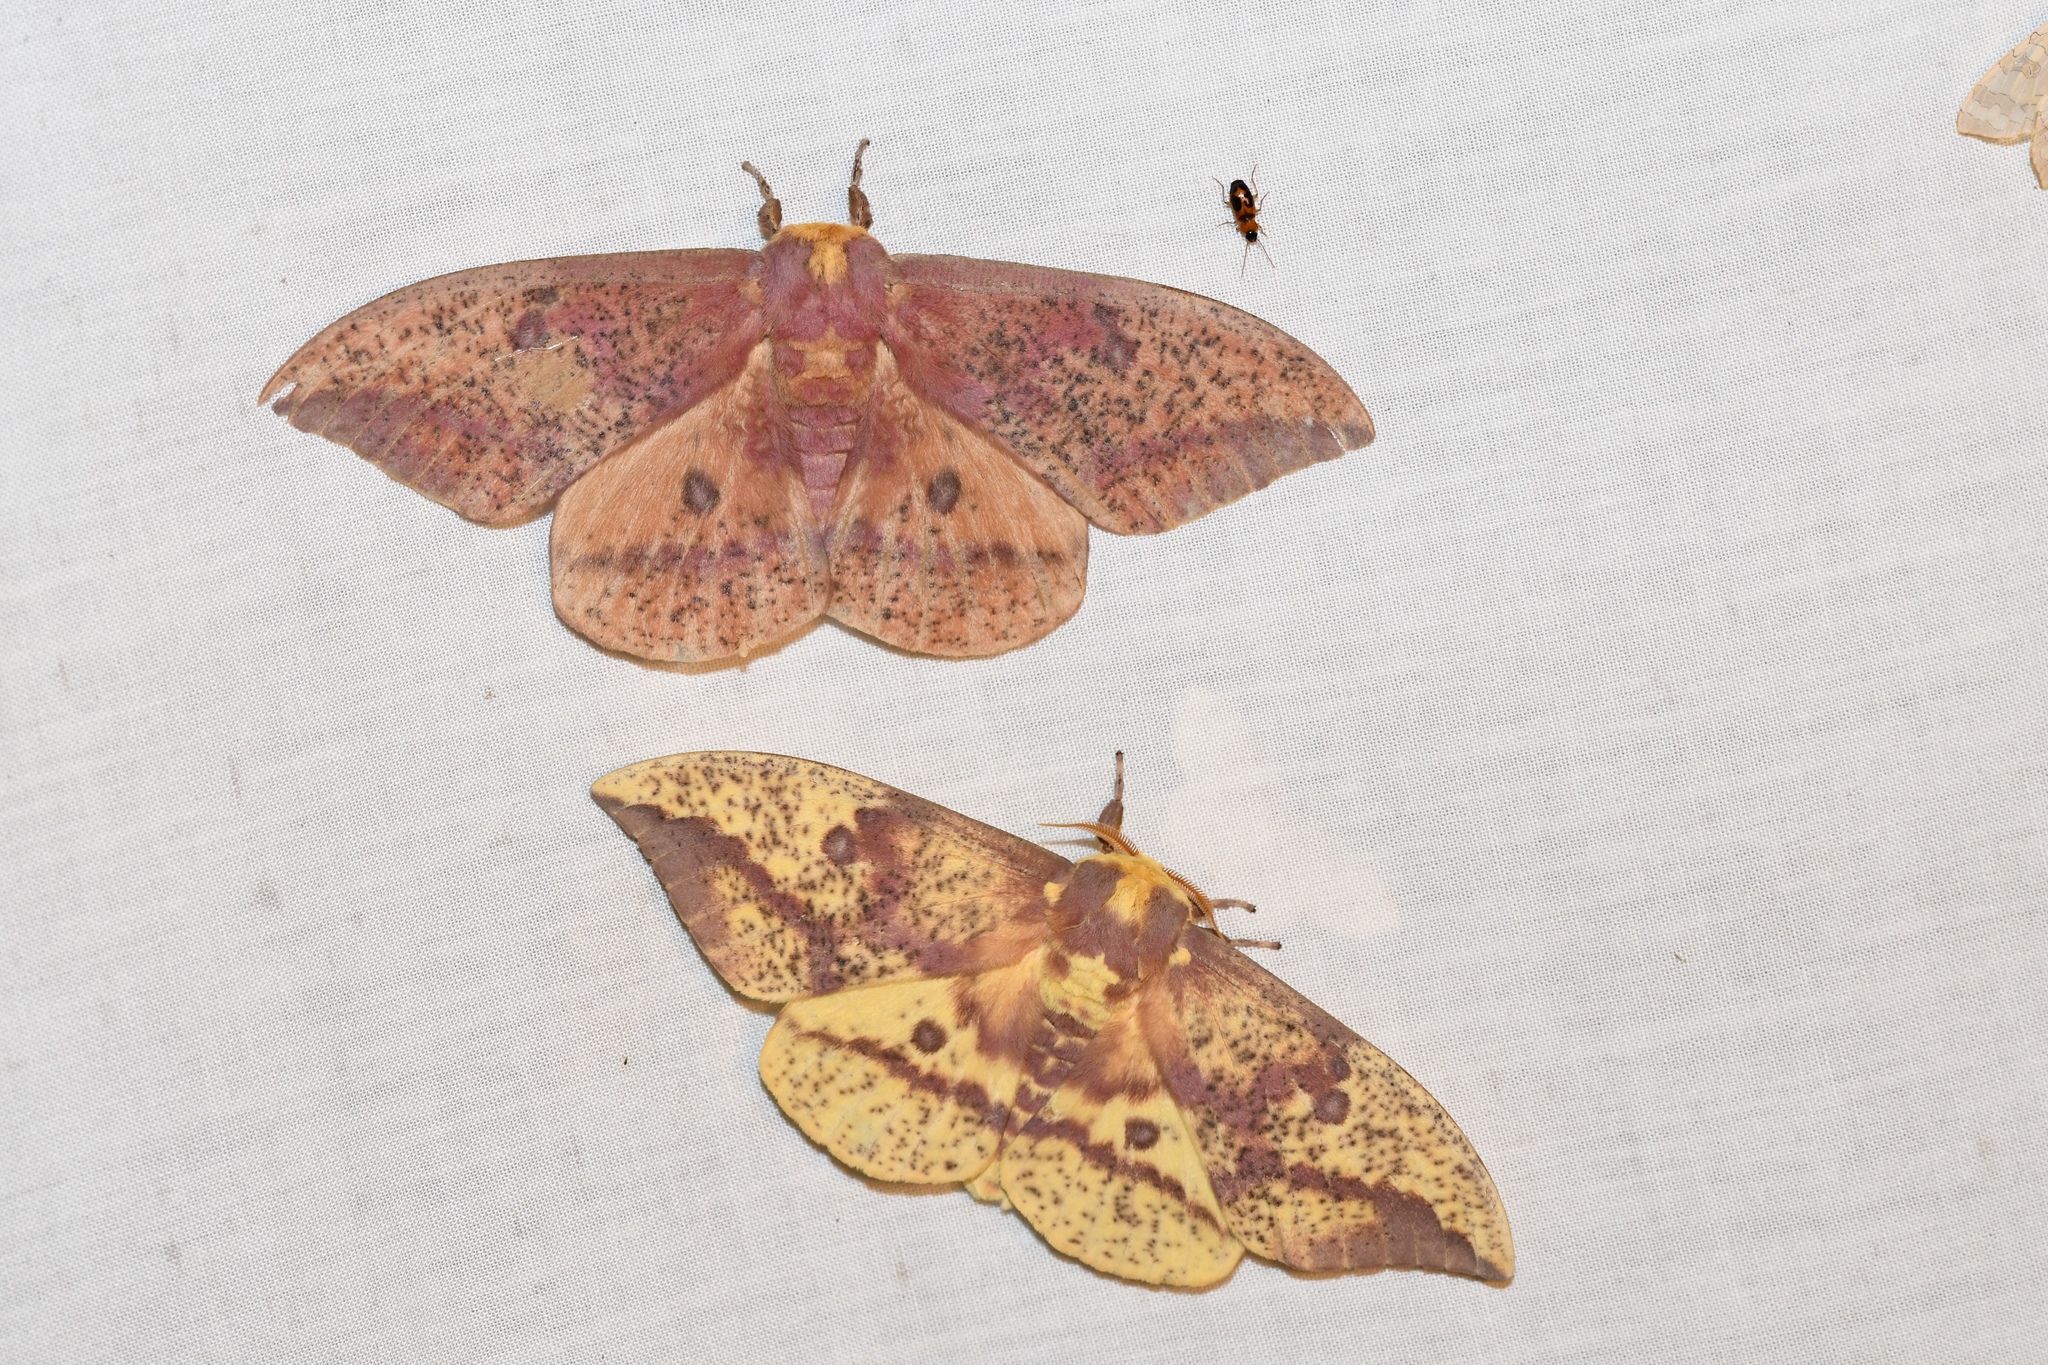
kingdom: Animalia
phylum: Arthropoda
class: Insecta
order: Lepidoptera
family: Saturniidae
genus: Eacles
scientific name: Eacles
